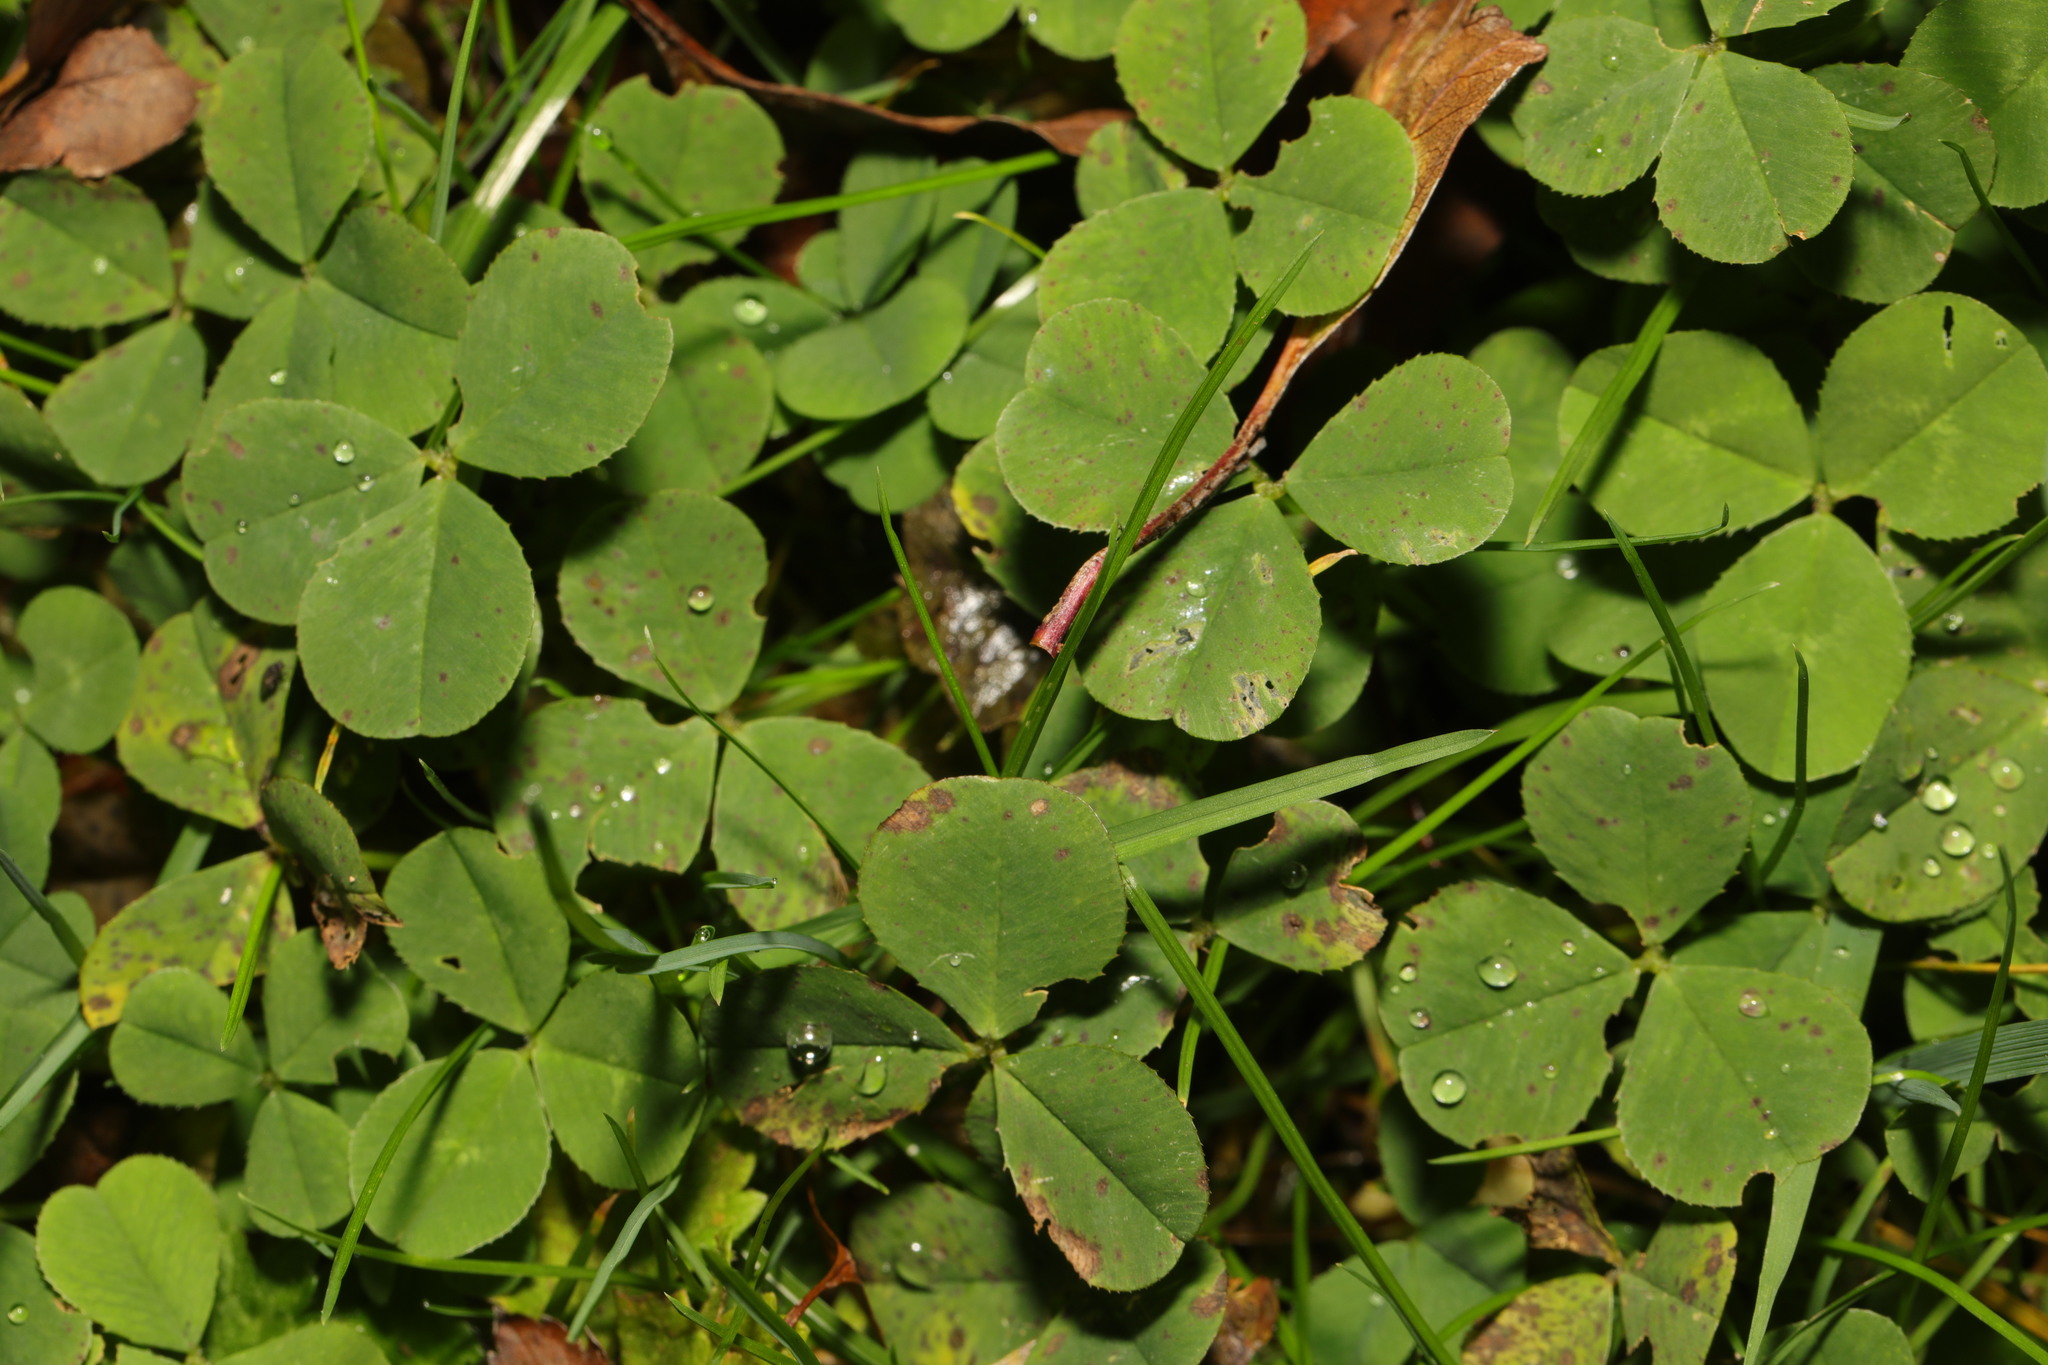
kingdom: Plantae
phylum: Tracheophyta
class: Magnoliopsida
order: Fabales
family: Fabaceae
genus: Trifolium
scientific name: Trifolium repens
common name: White clover
